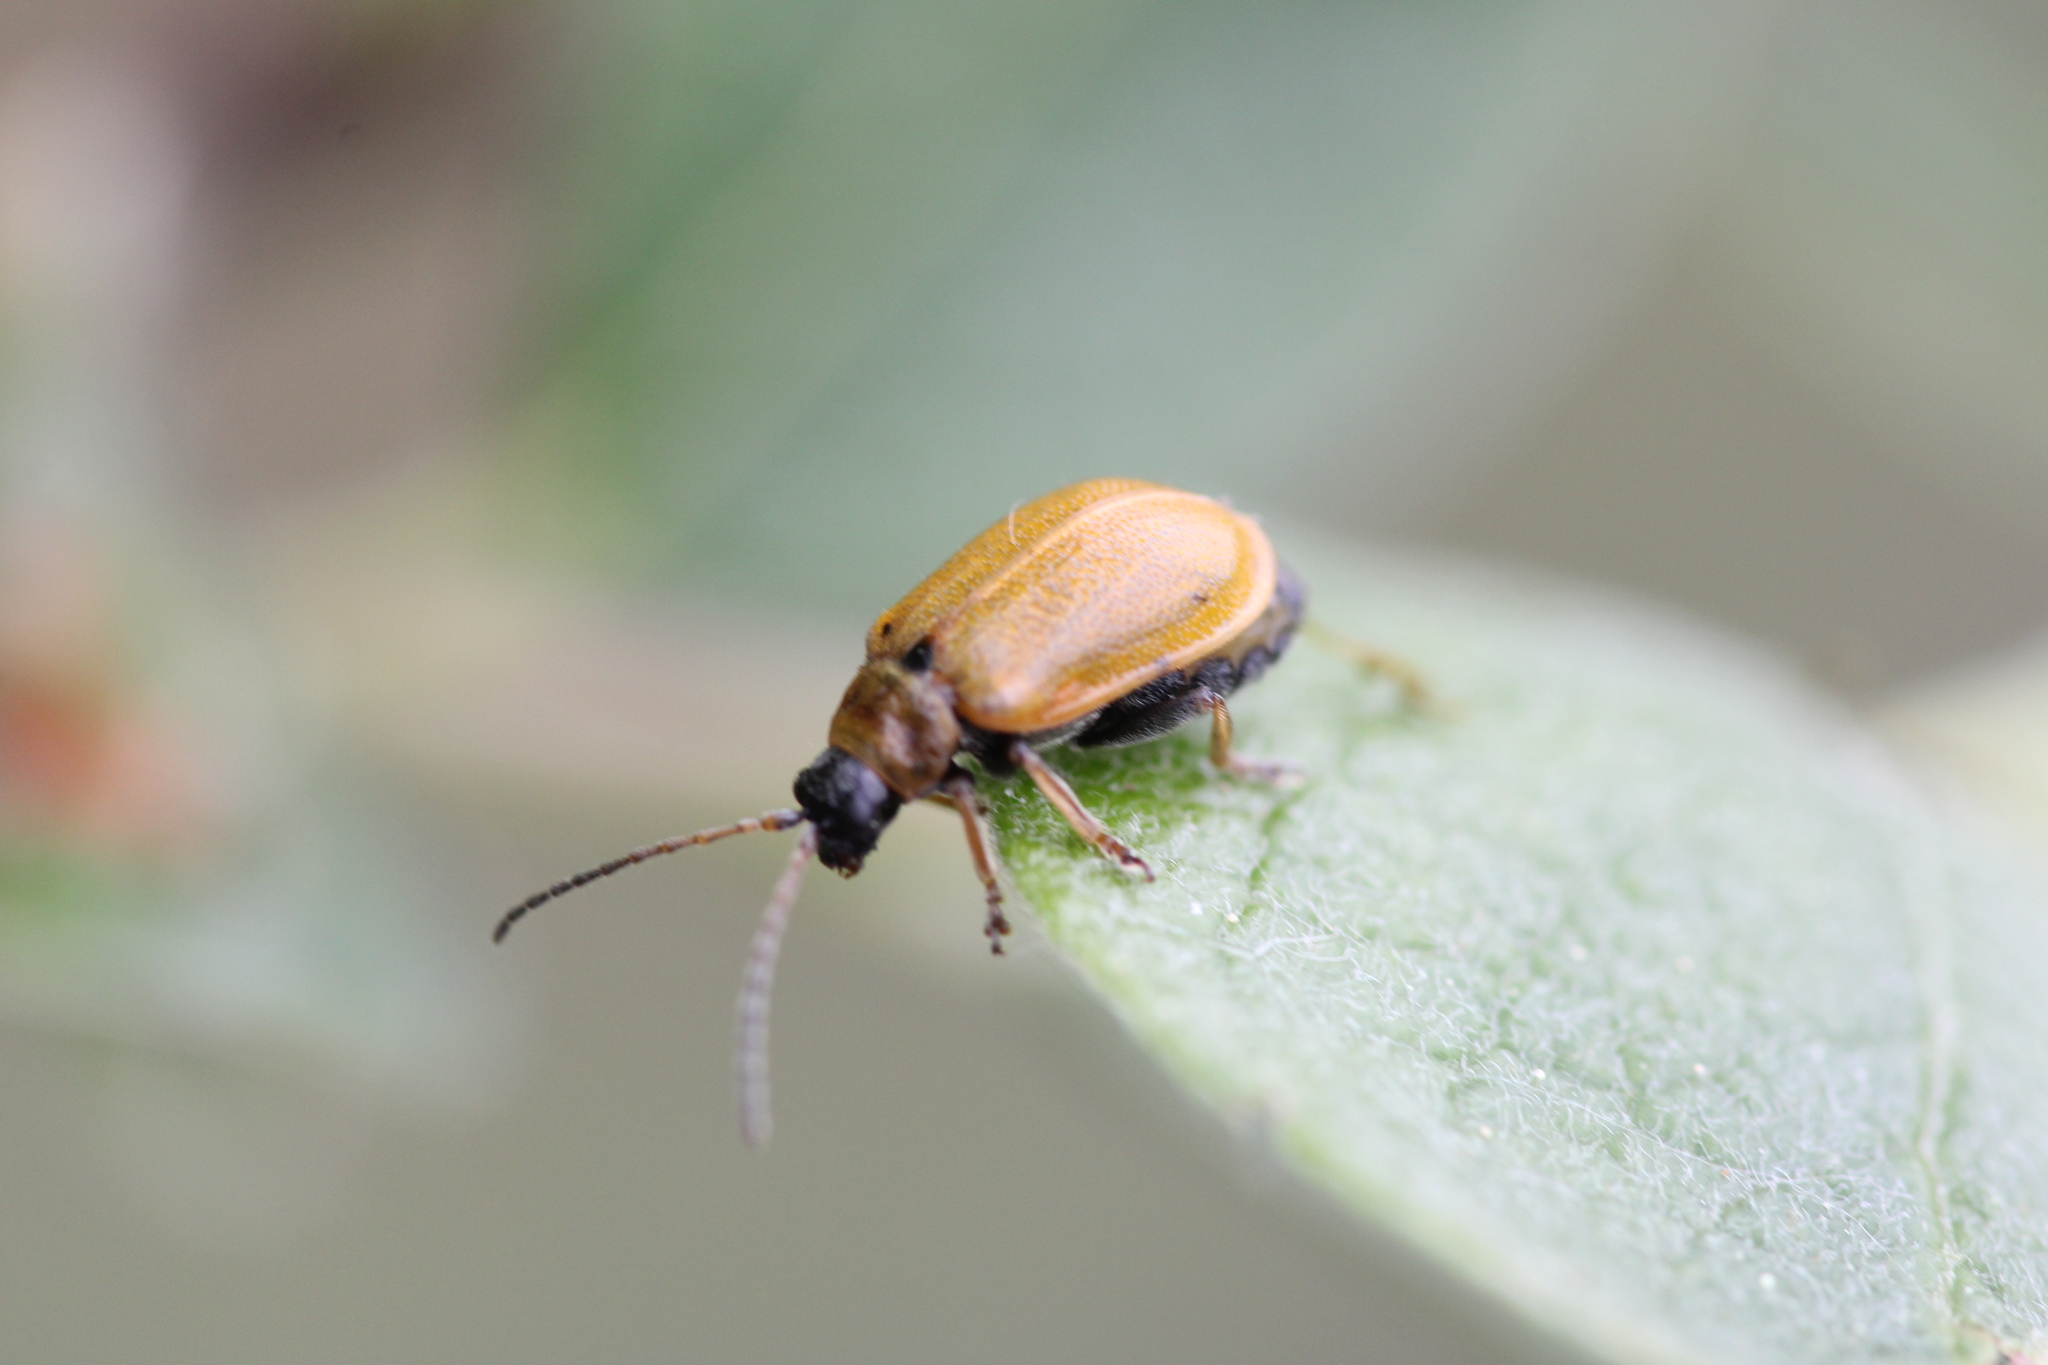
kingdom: Animalia
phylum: Arthropoda
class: Insecta
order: Coleoptera
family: Chrysomelidae
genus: Lochmaea
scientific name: Lochmaea caprea
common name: Willow leaf beetle
